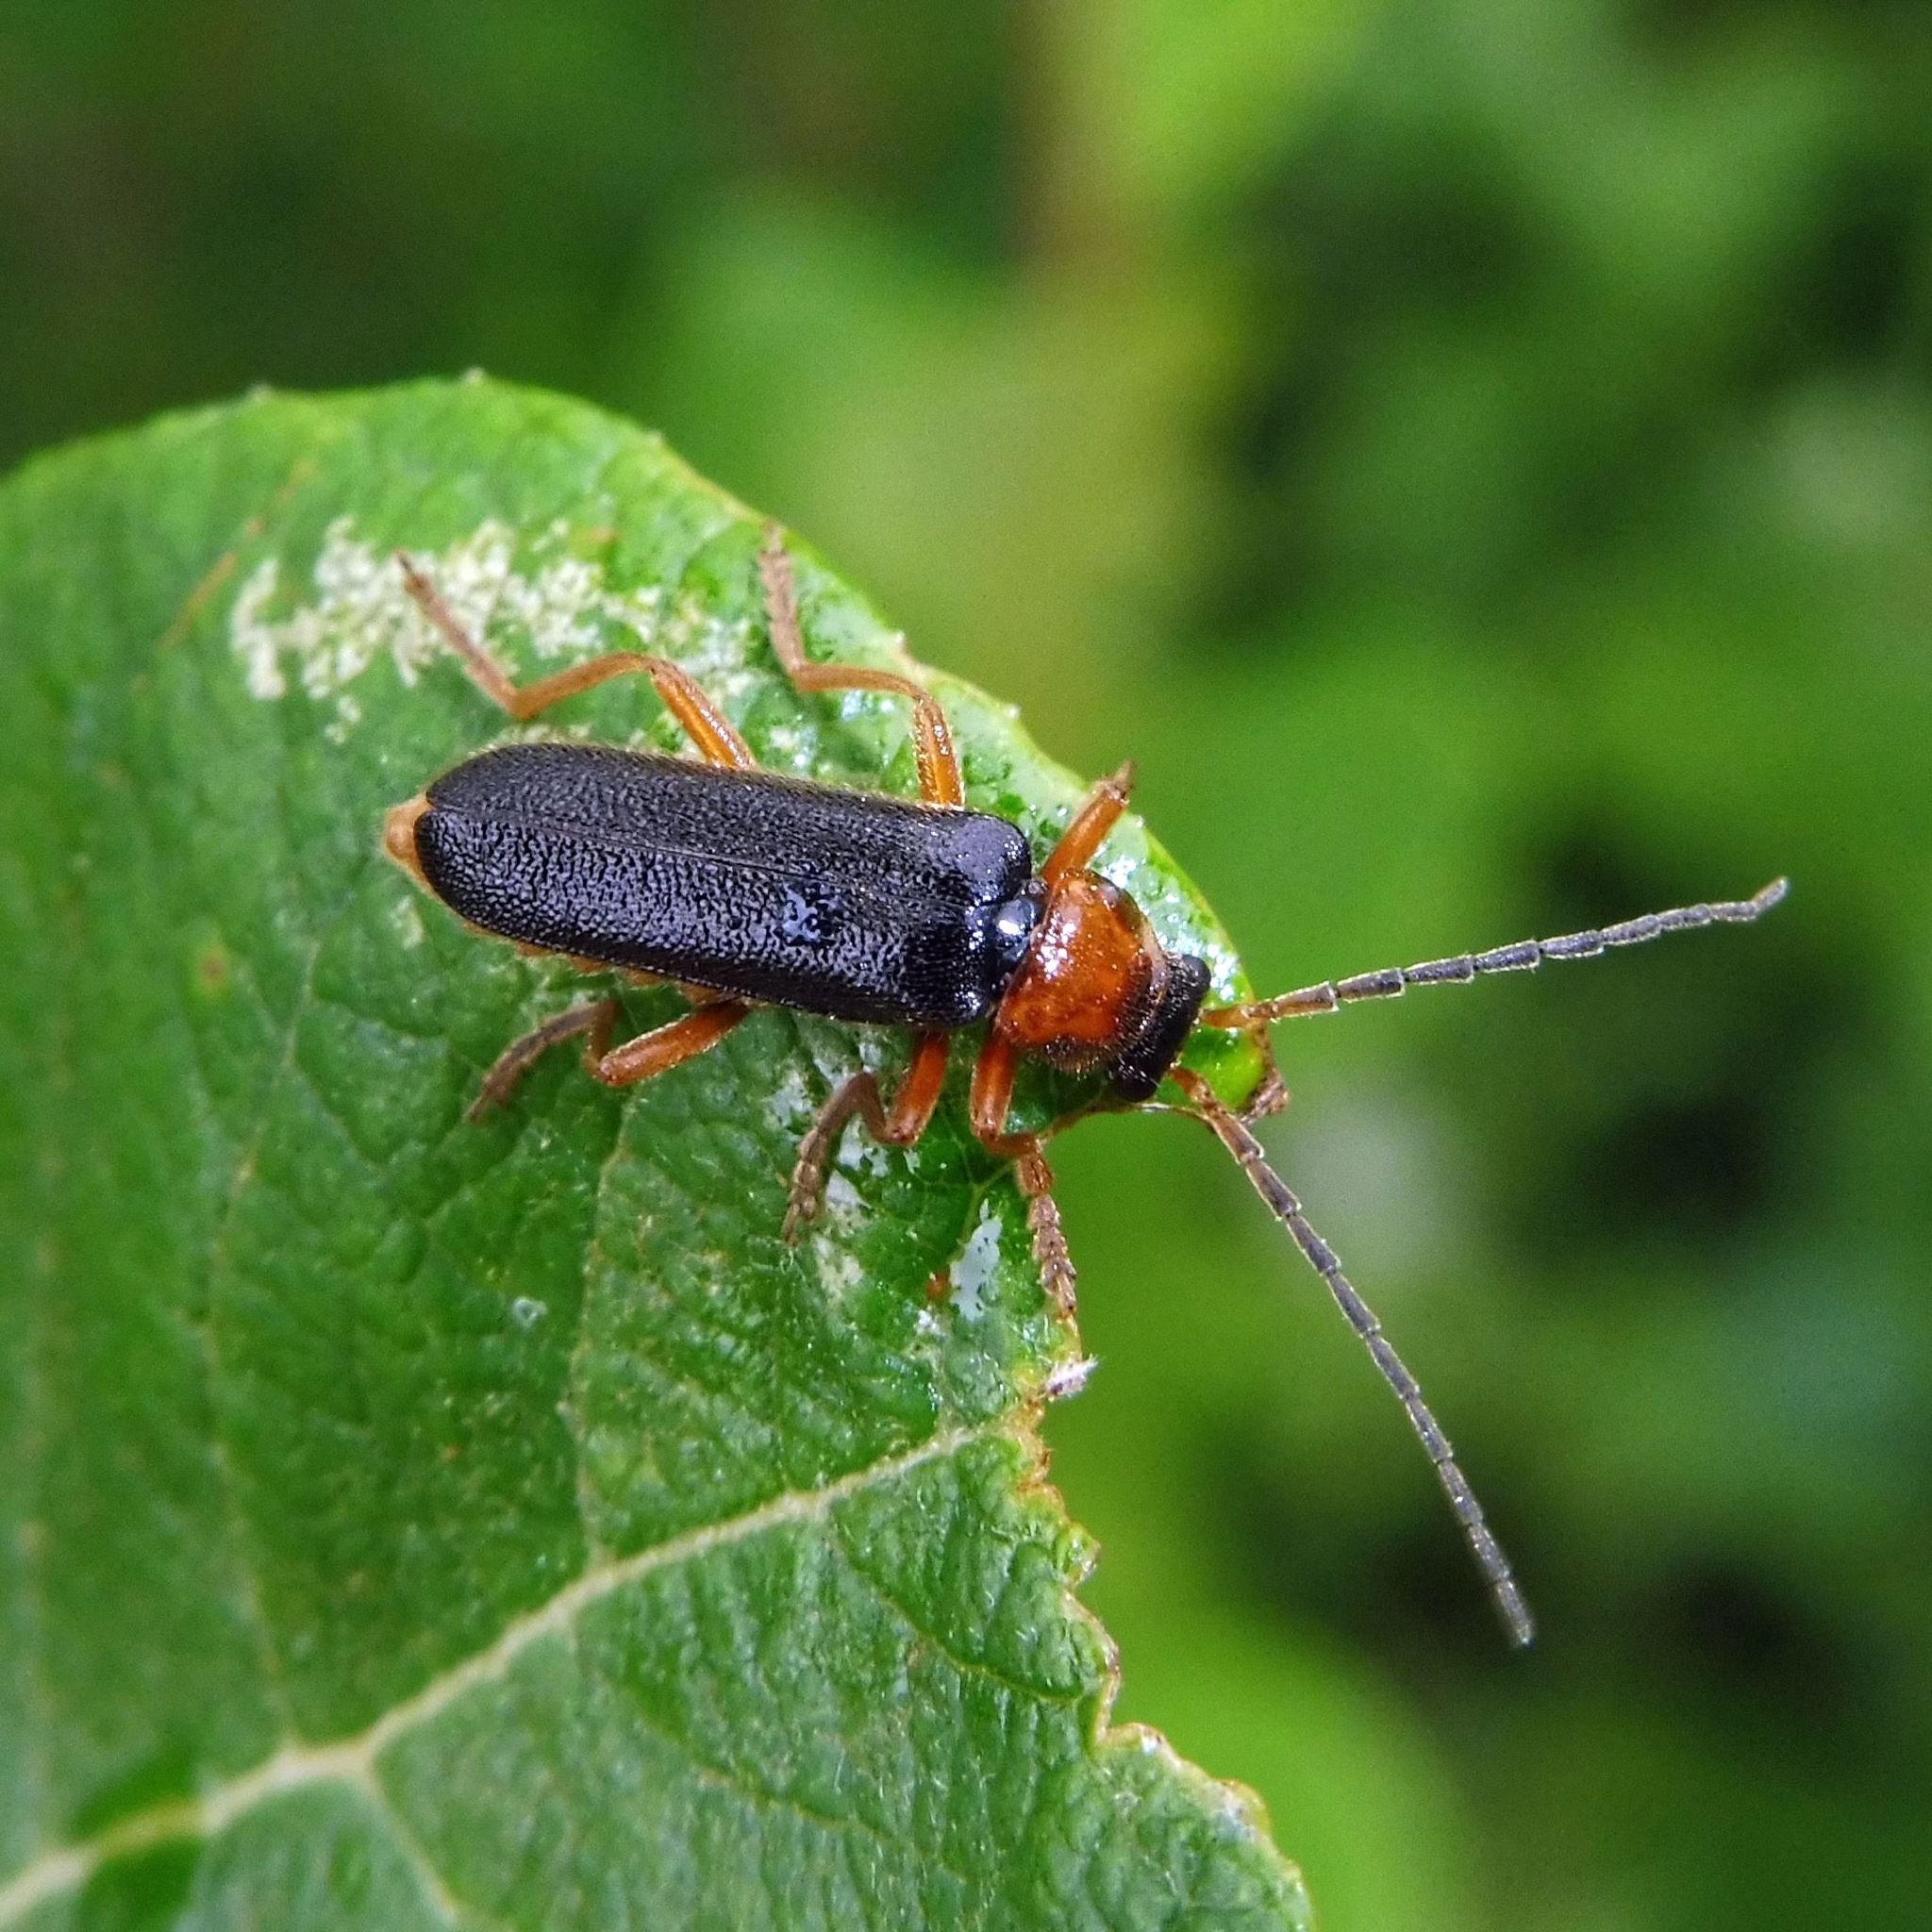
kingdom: Animalia
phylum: Arthropoda
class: Insecta
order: Coleoptera
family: Cantharidae
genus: Cantharis
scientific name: Cantharis flavilabris
